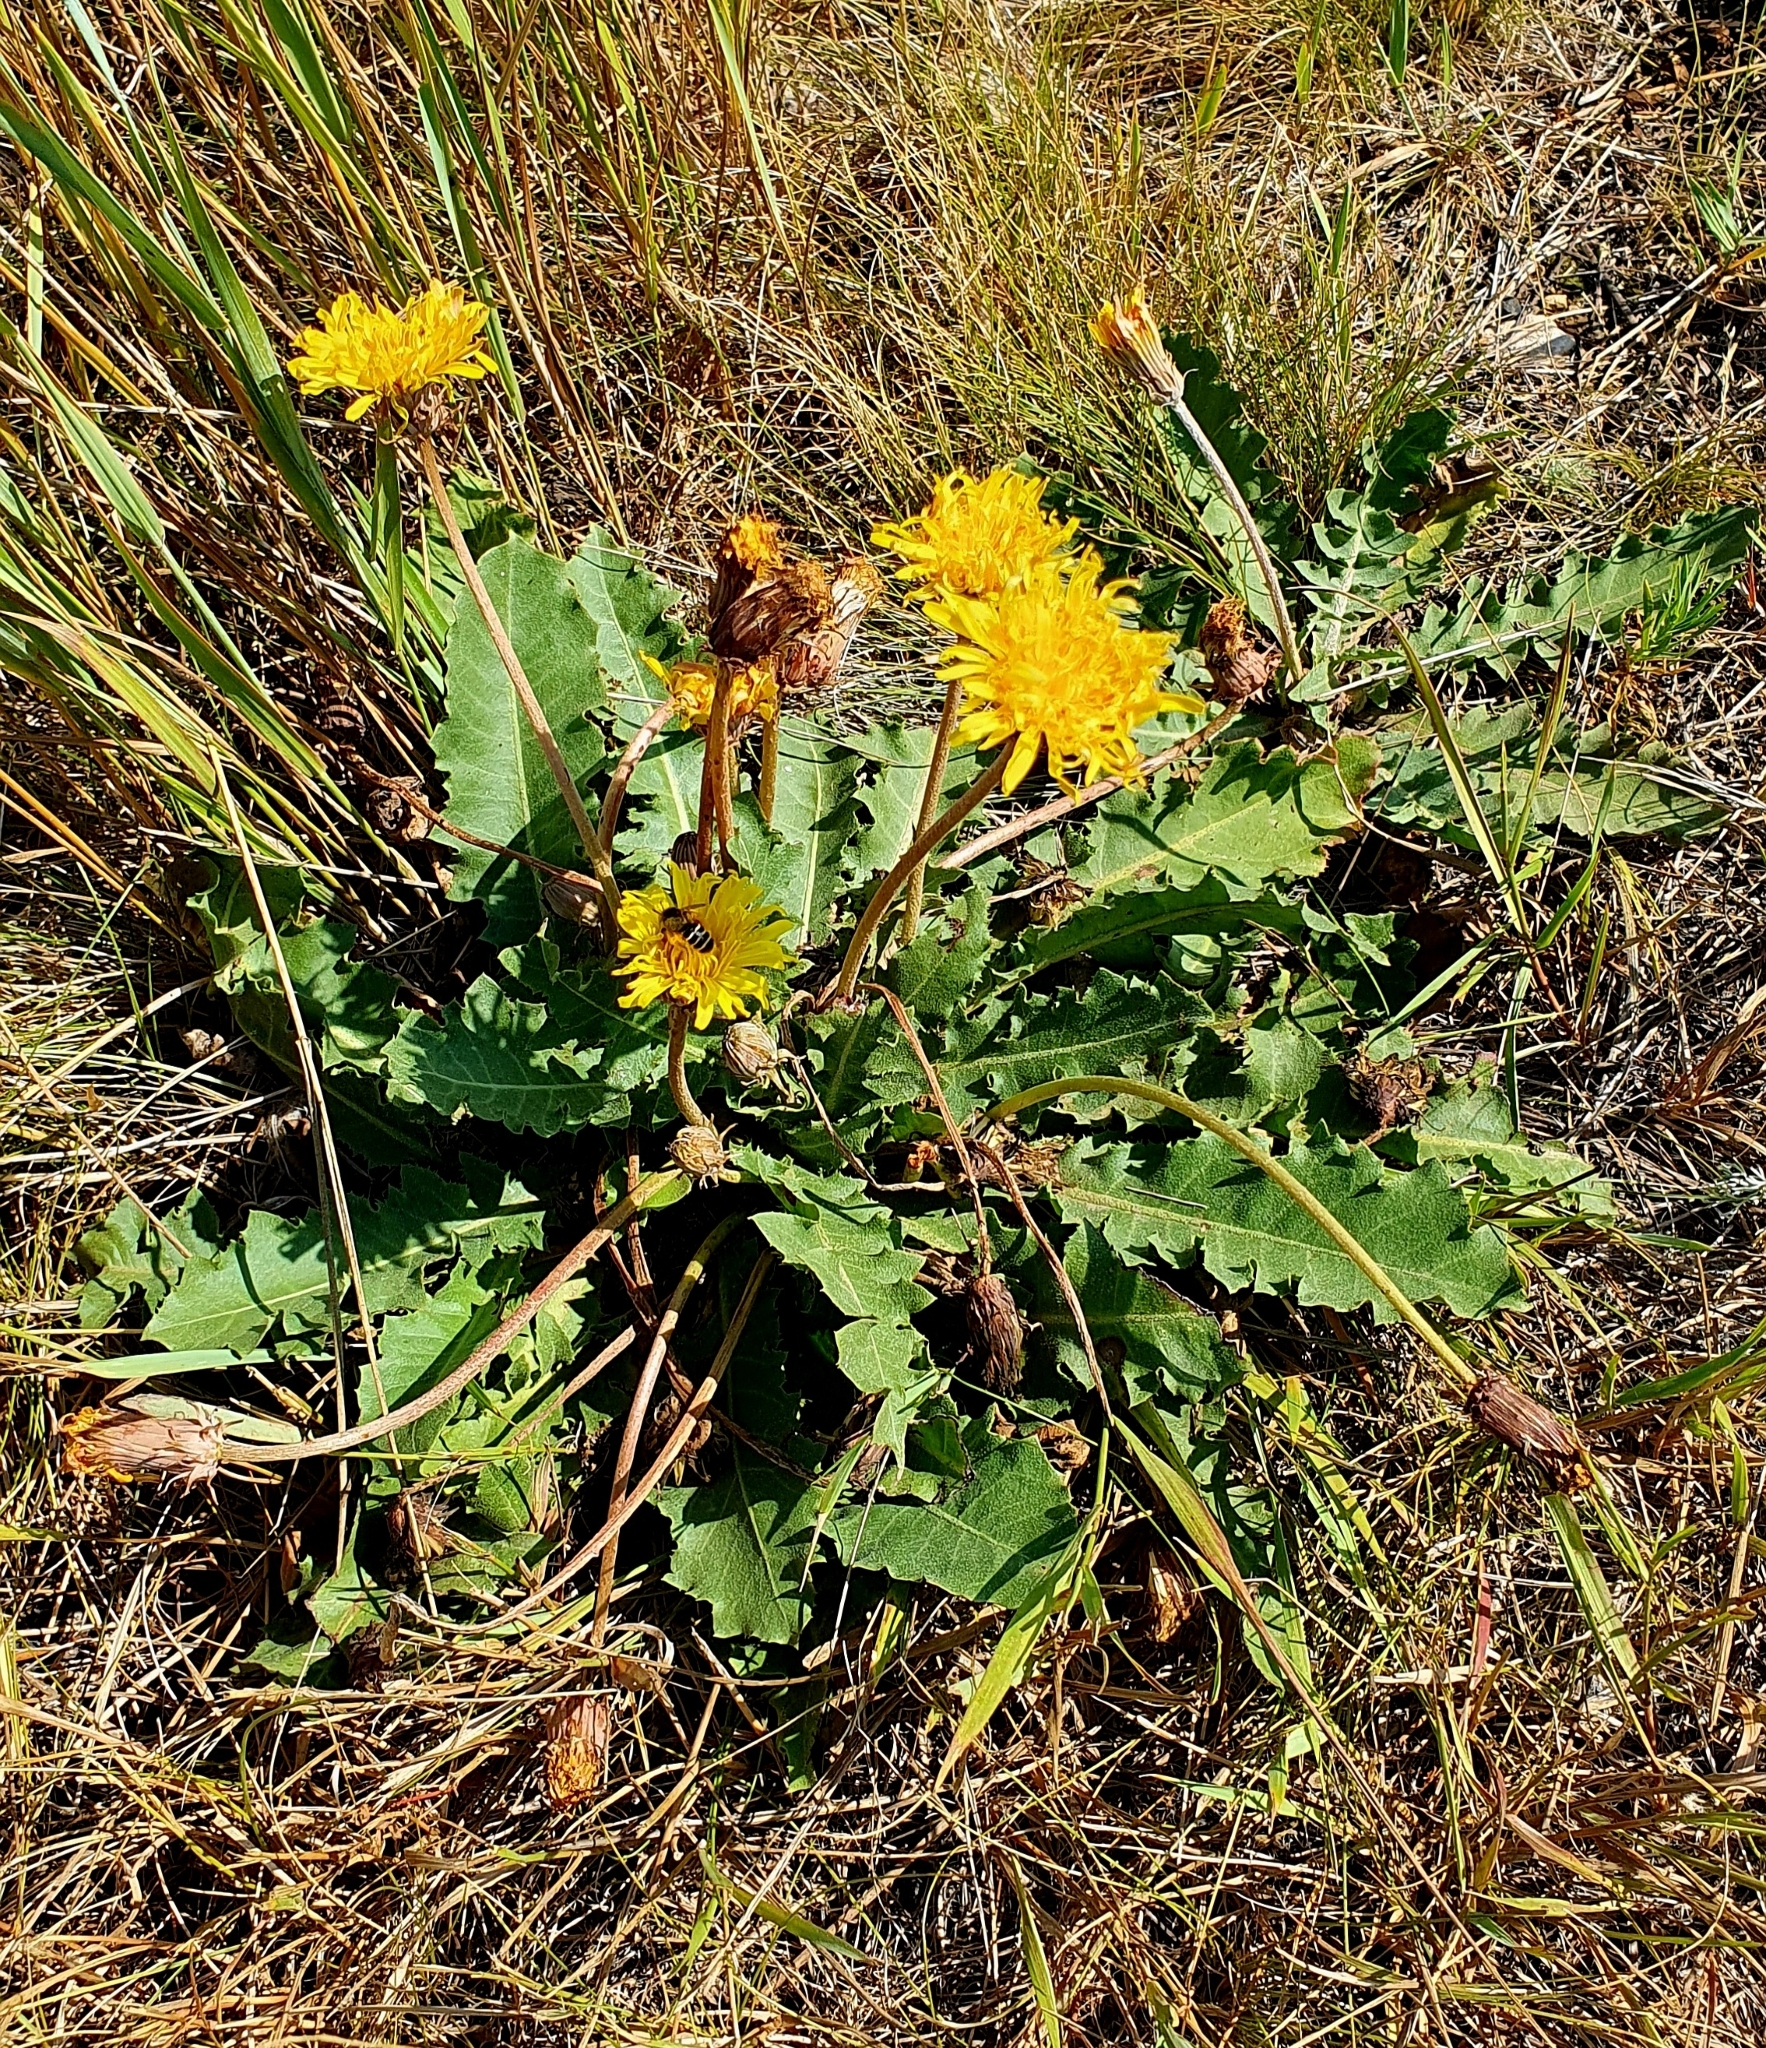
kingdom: Plantae
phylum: Tracheophyta
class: Magnoliopsida
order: Asterales
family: Asteraceae
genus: Taraxacum
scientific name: Taraxacum serotinum
